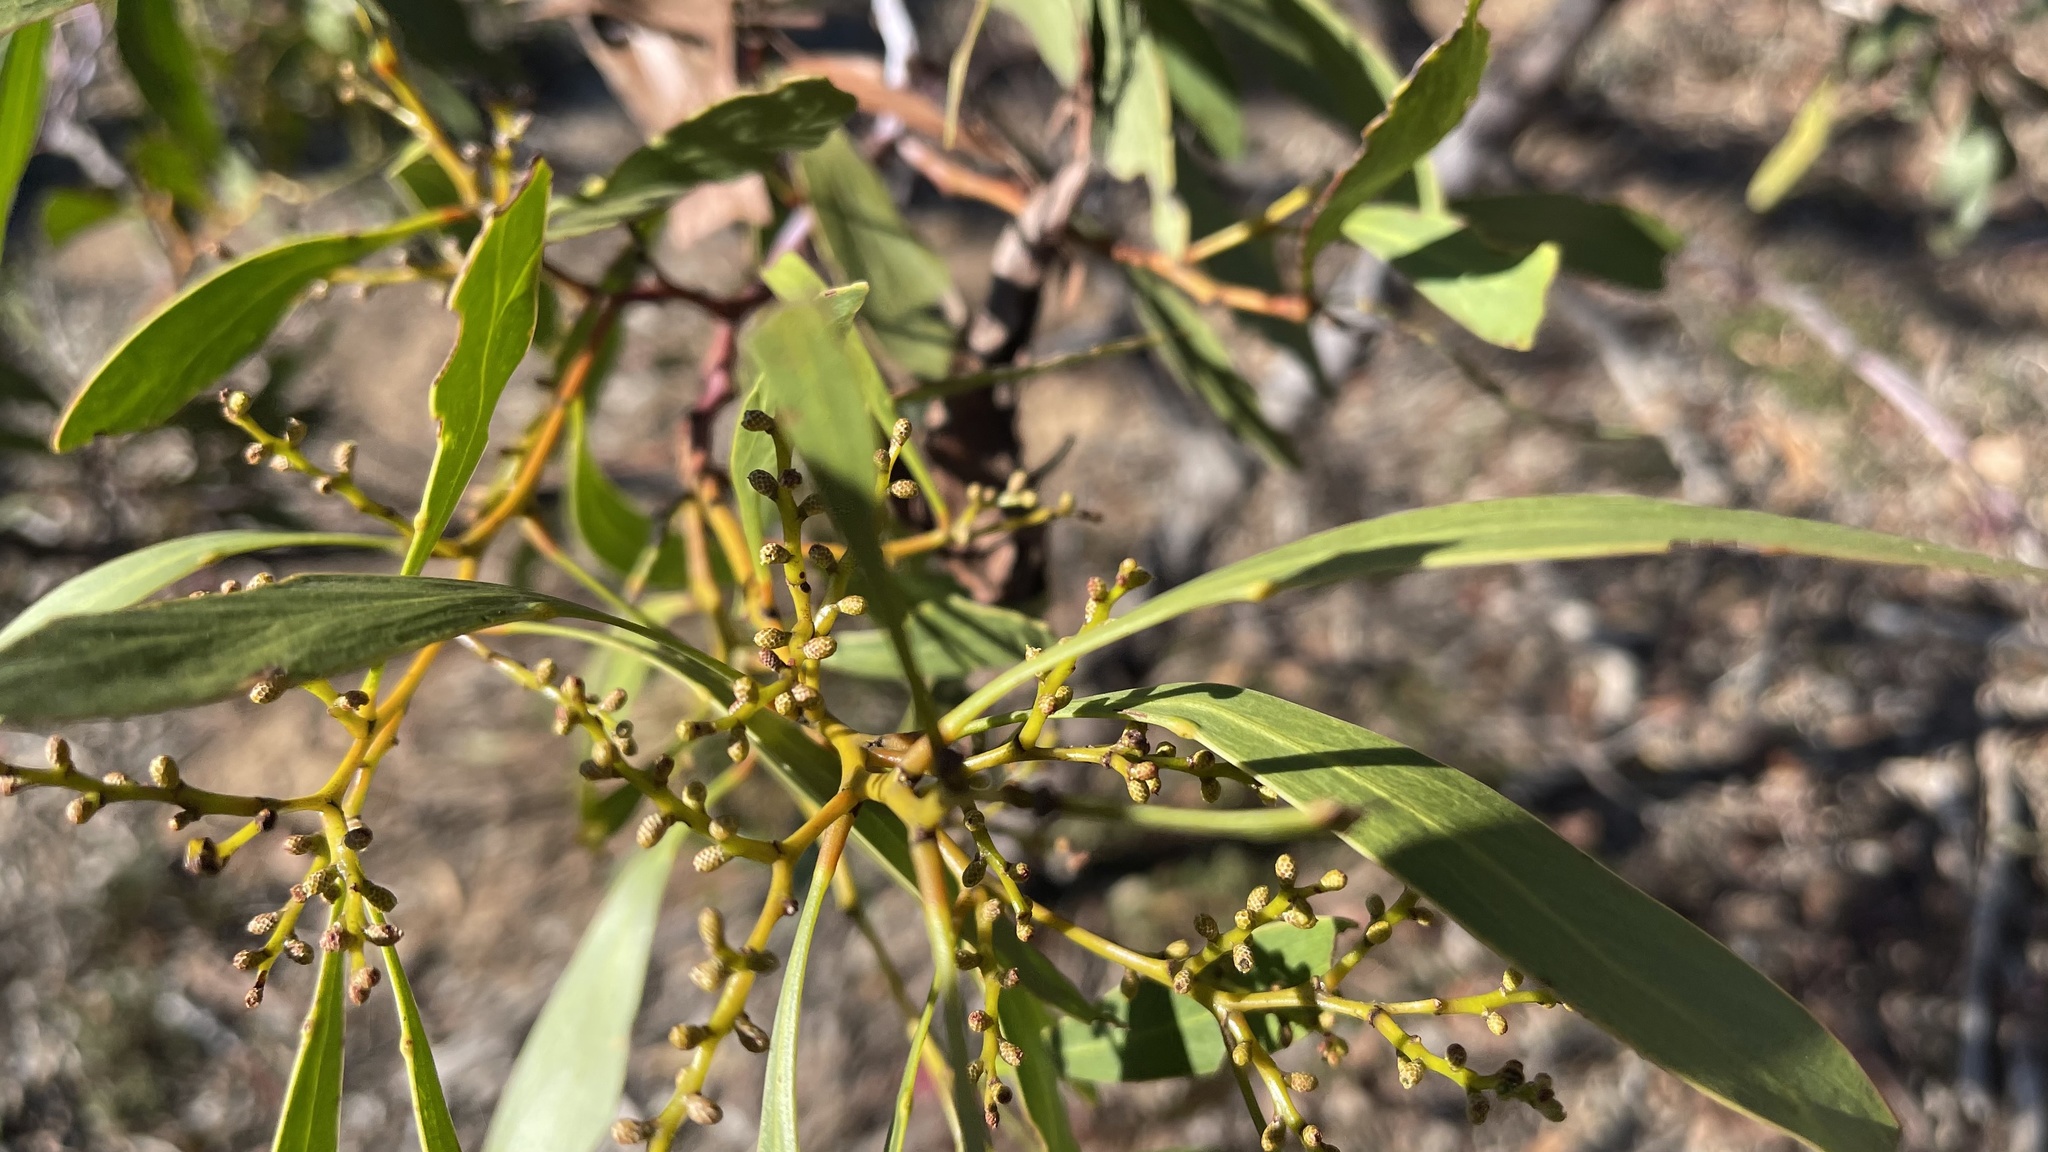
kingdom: Plantae
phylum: Tracheophyta
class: Magnoliopsida
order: Fabales
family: Fabaceae
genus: Acacia
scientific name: Acacia pycnantha
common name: Golden wattle
